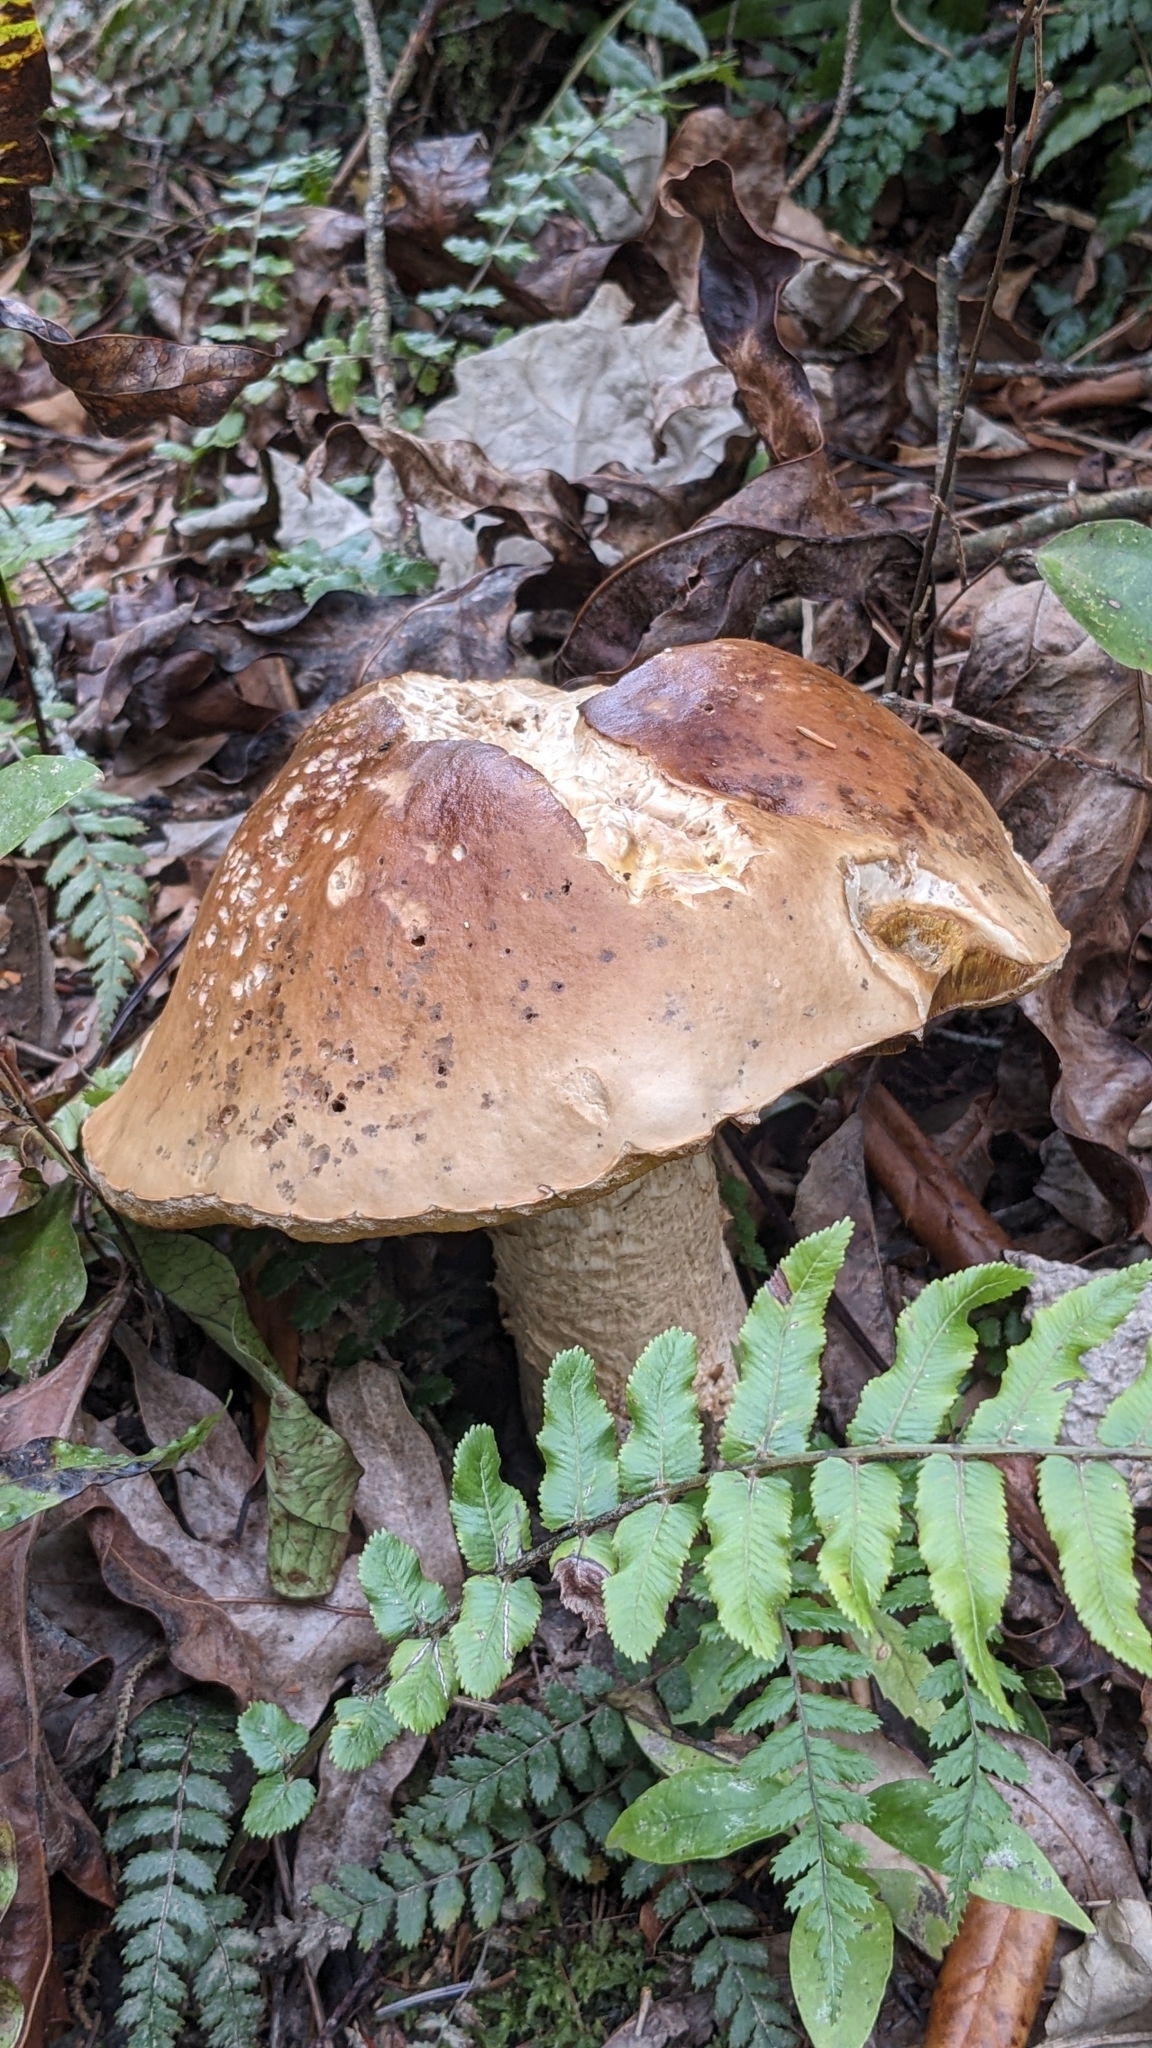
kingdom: Fungi
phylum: Basidiomycota
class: Agaricomycetes
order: Boletales
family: Boletaceae
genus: Boletus
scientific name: Boletus edulis
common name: Cep
